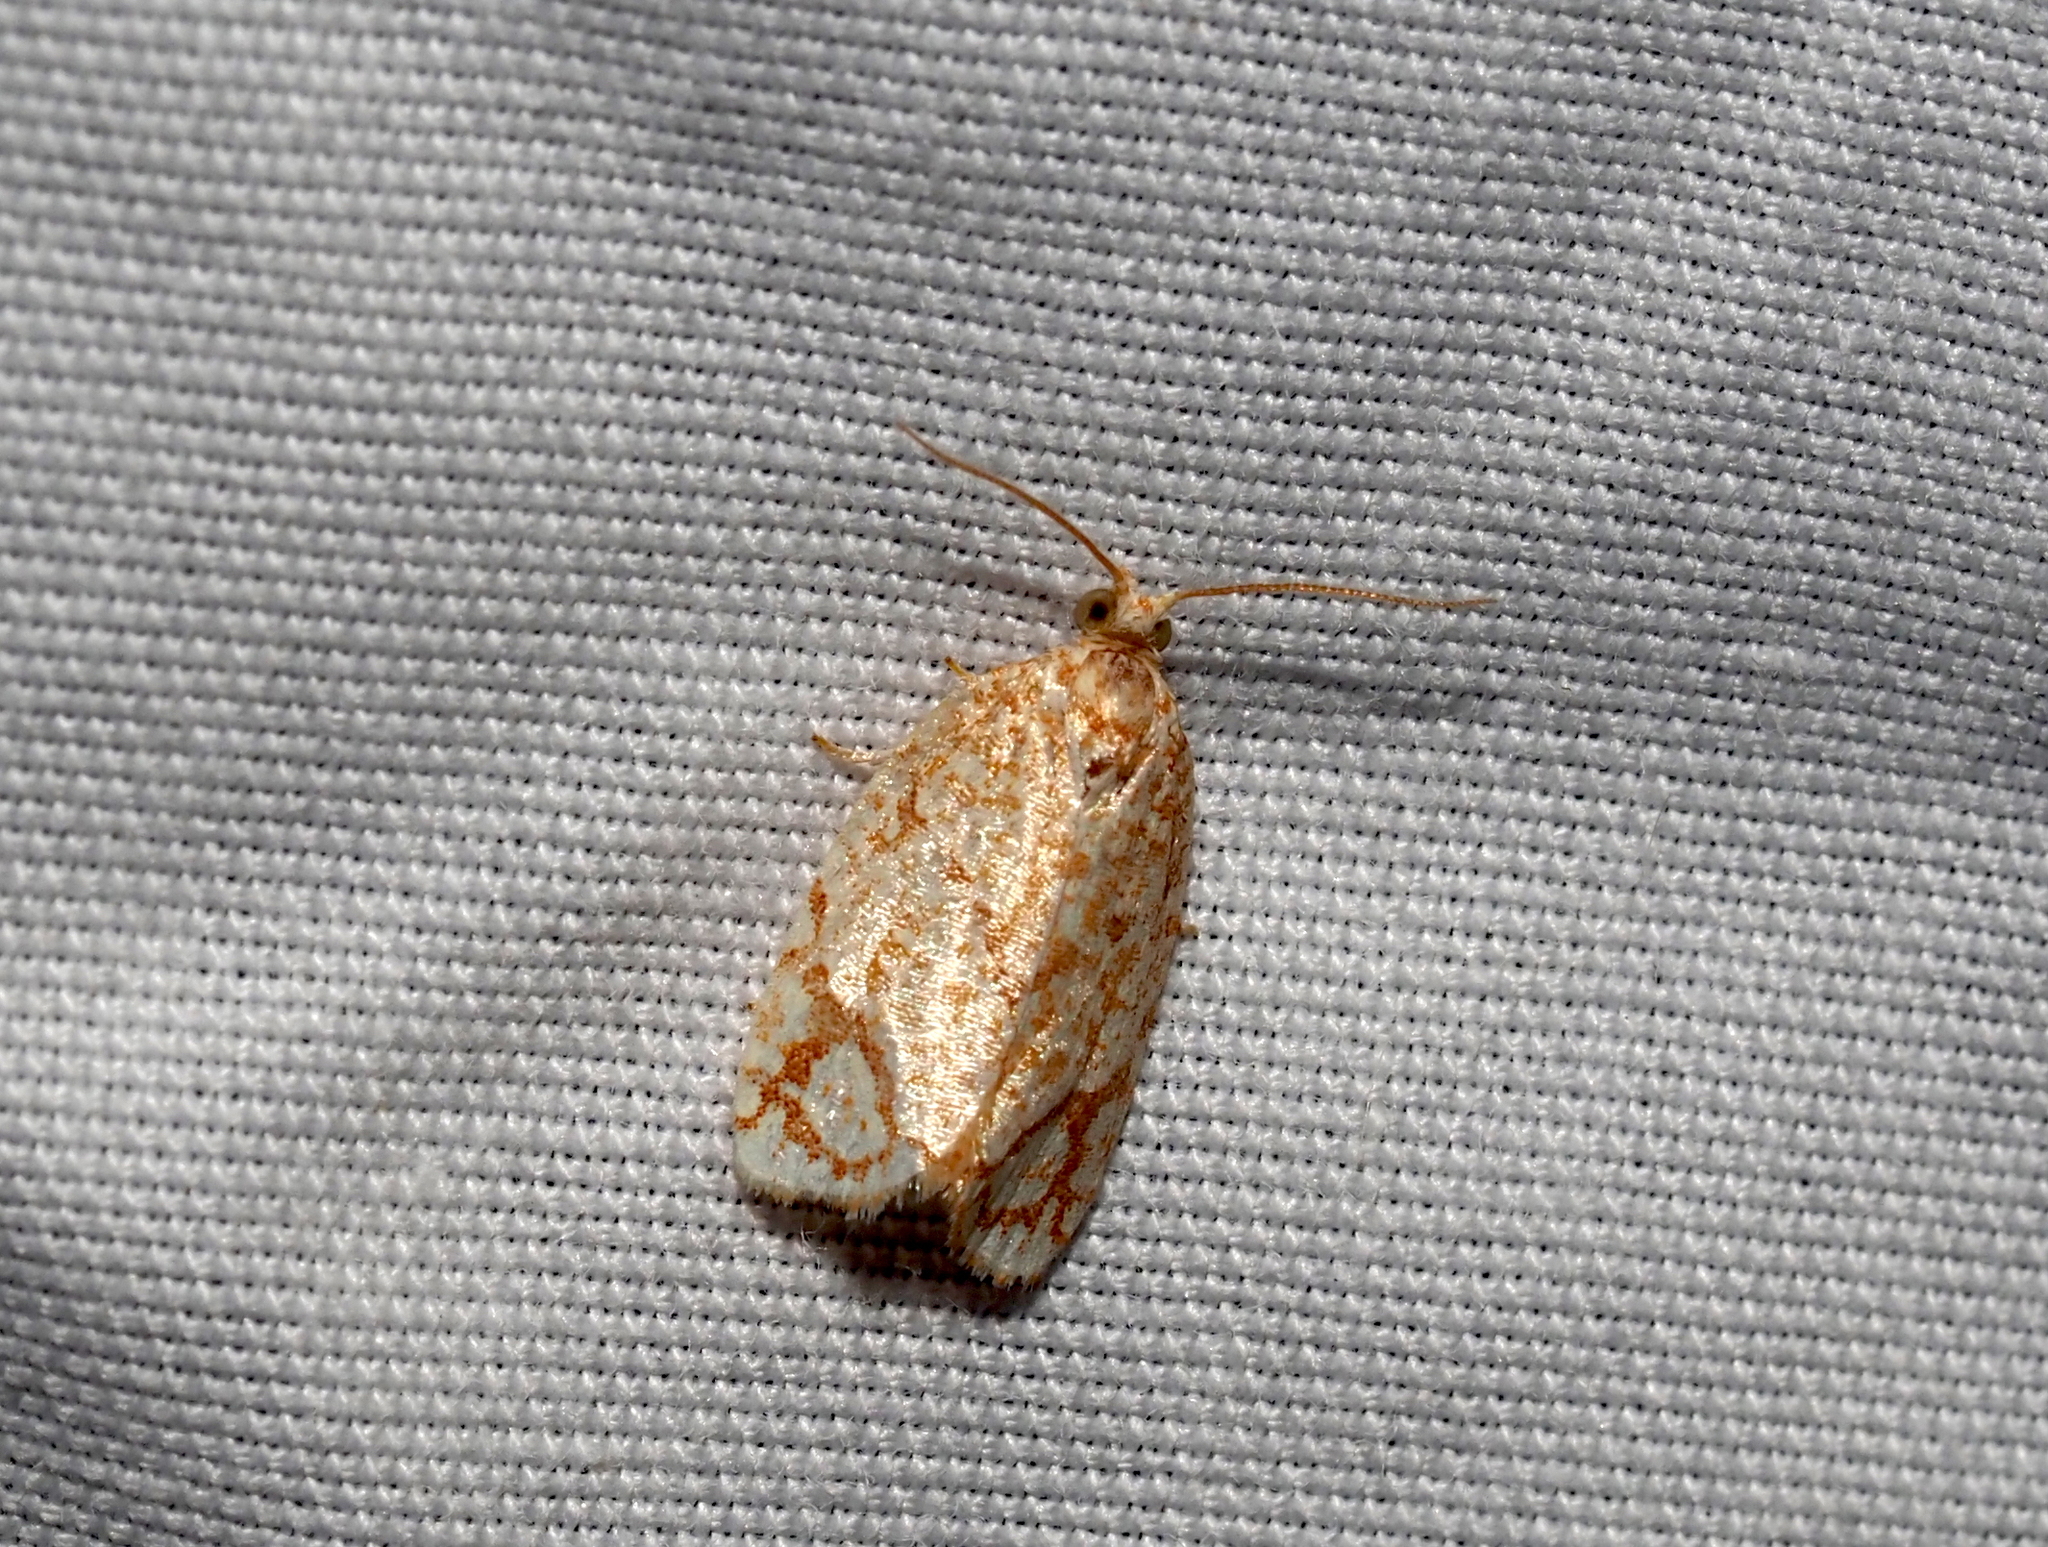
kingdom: Animalia
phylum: Arthropoda
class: Insecta
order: Lepidoptera
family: Tortricidae
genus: Argyrotaenia
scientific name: Argyrotaenia quercifoliana
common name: Yellow-winged oak leafroller moth
